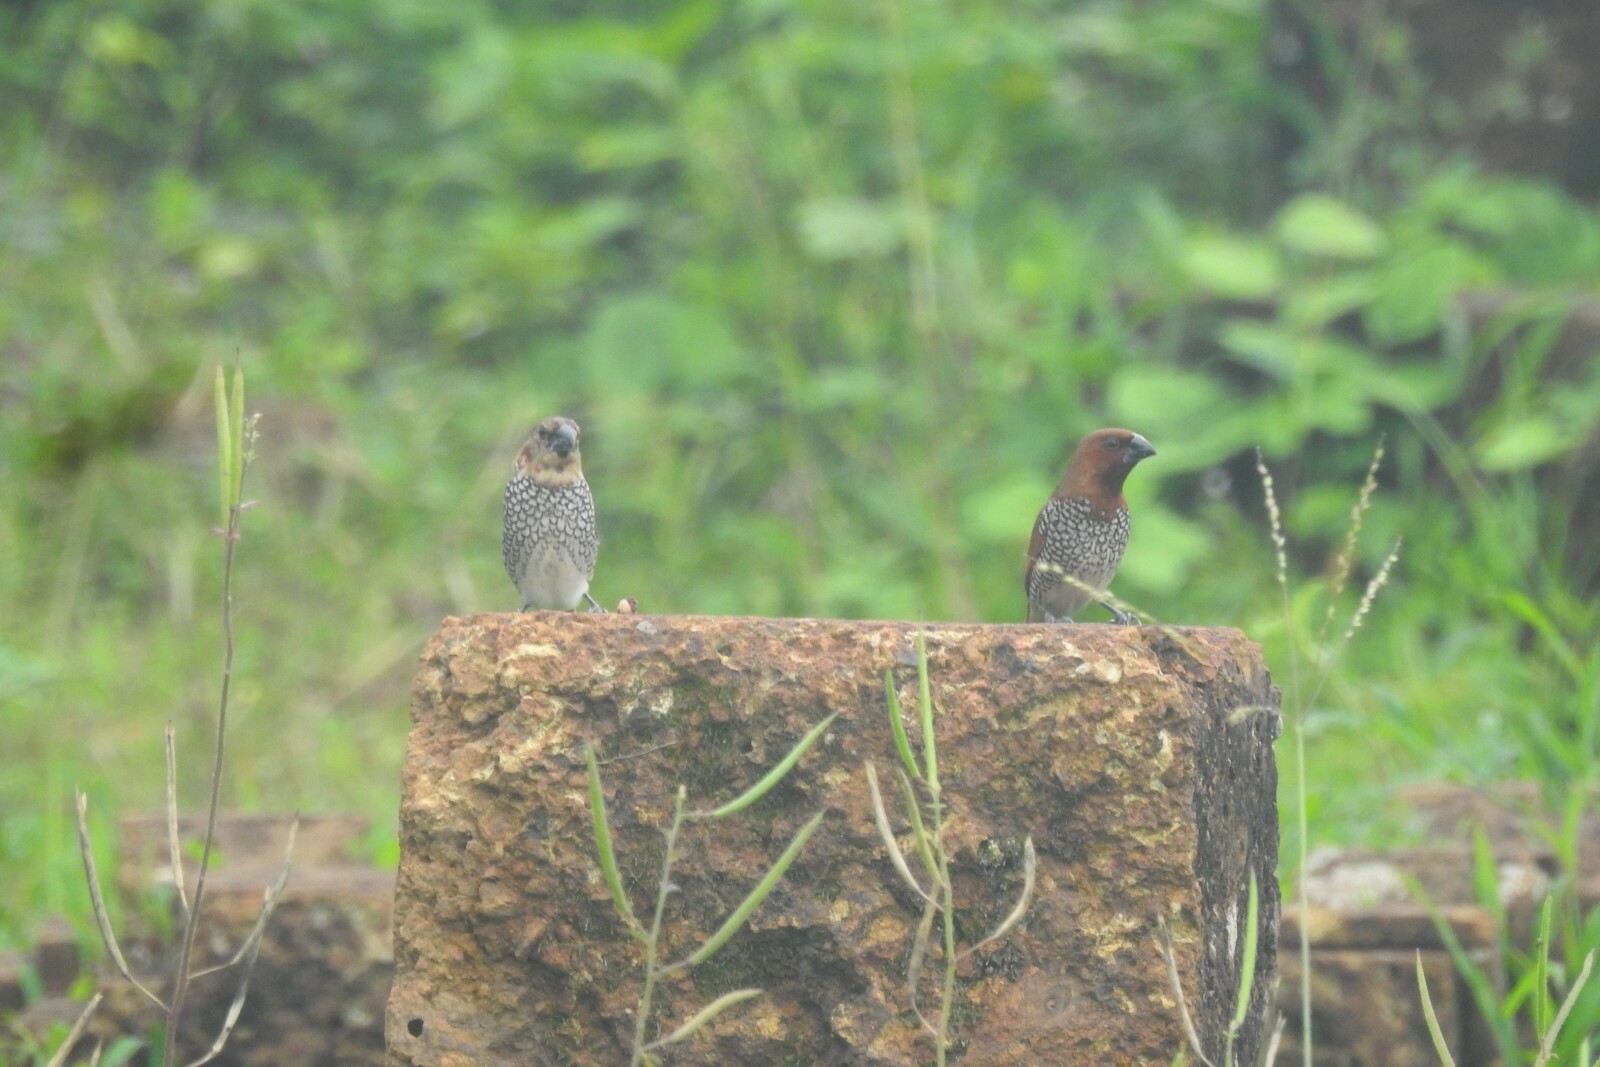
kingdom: Animalia
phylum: Chordata
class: Aves
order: Passeriformes
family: Estrildidae
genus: Lonchura
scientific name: Lonchura punctulata
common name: Scaly-breasted munia
